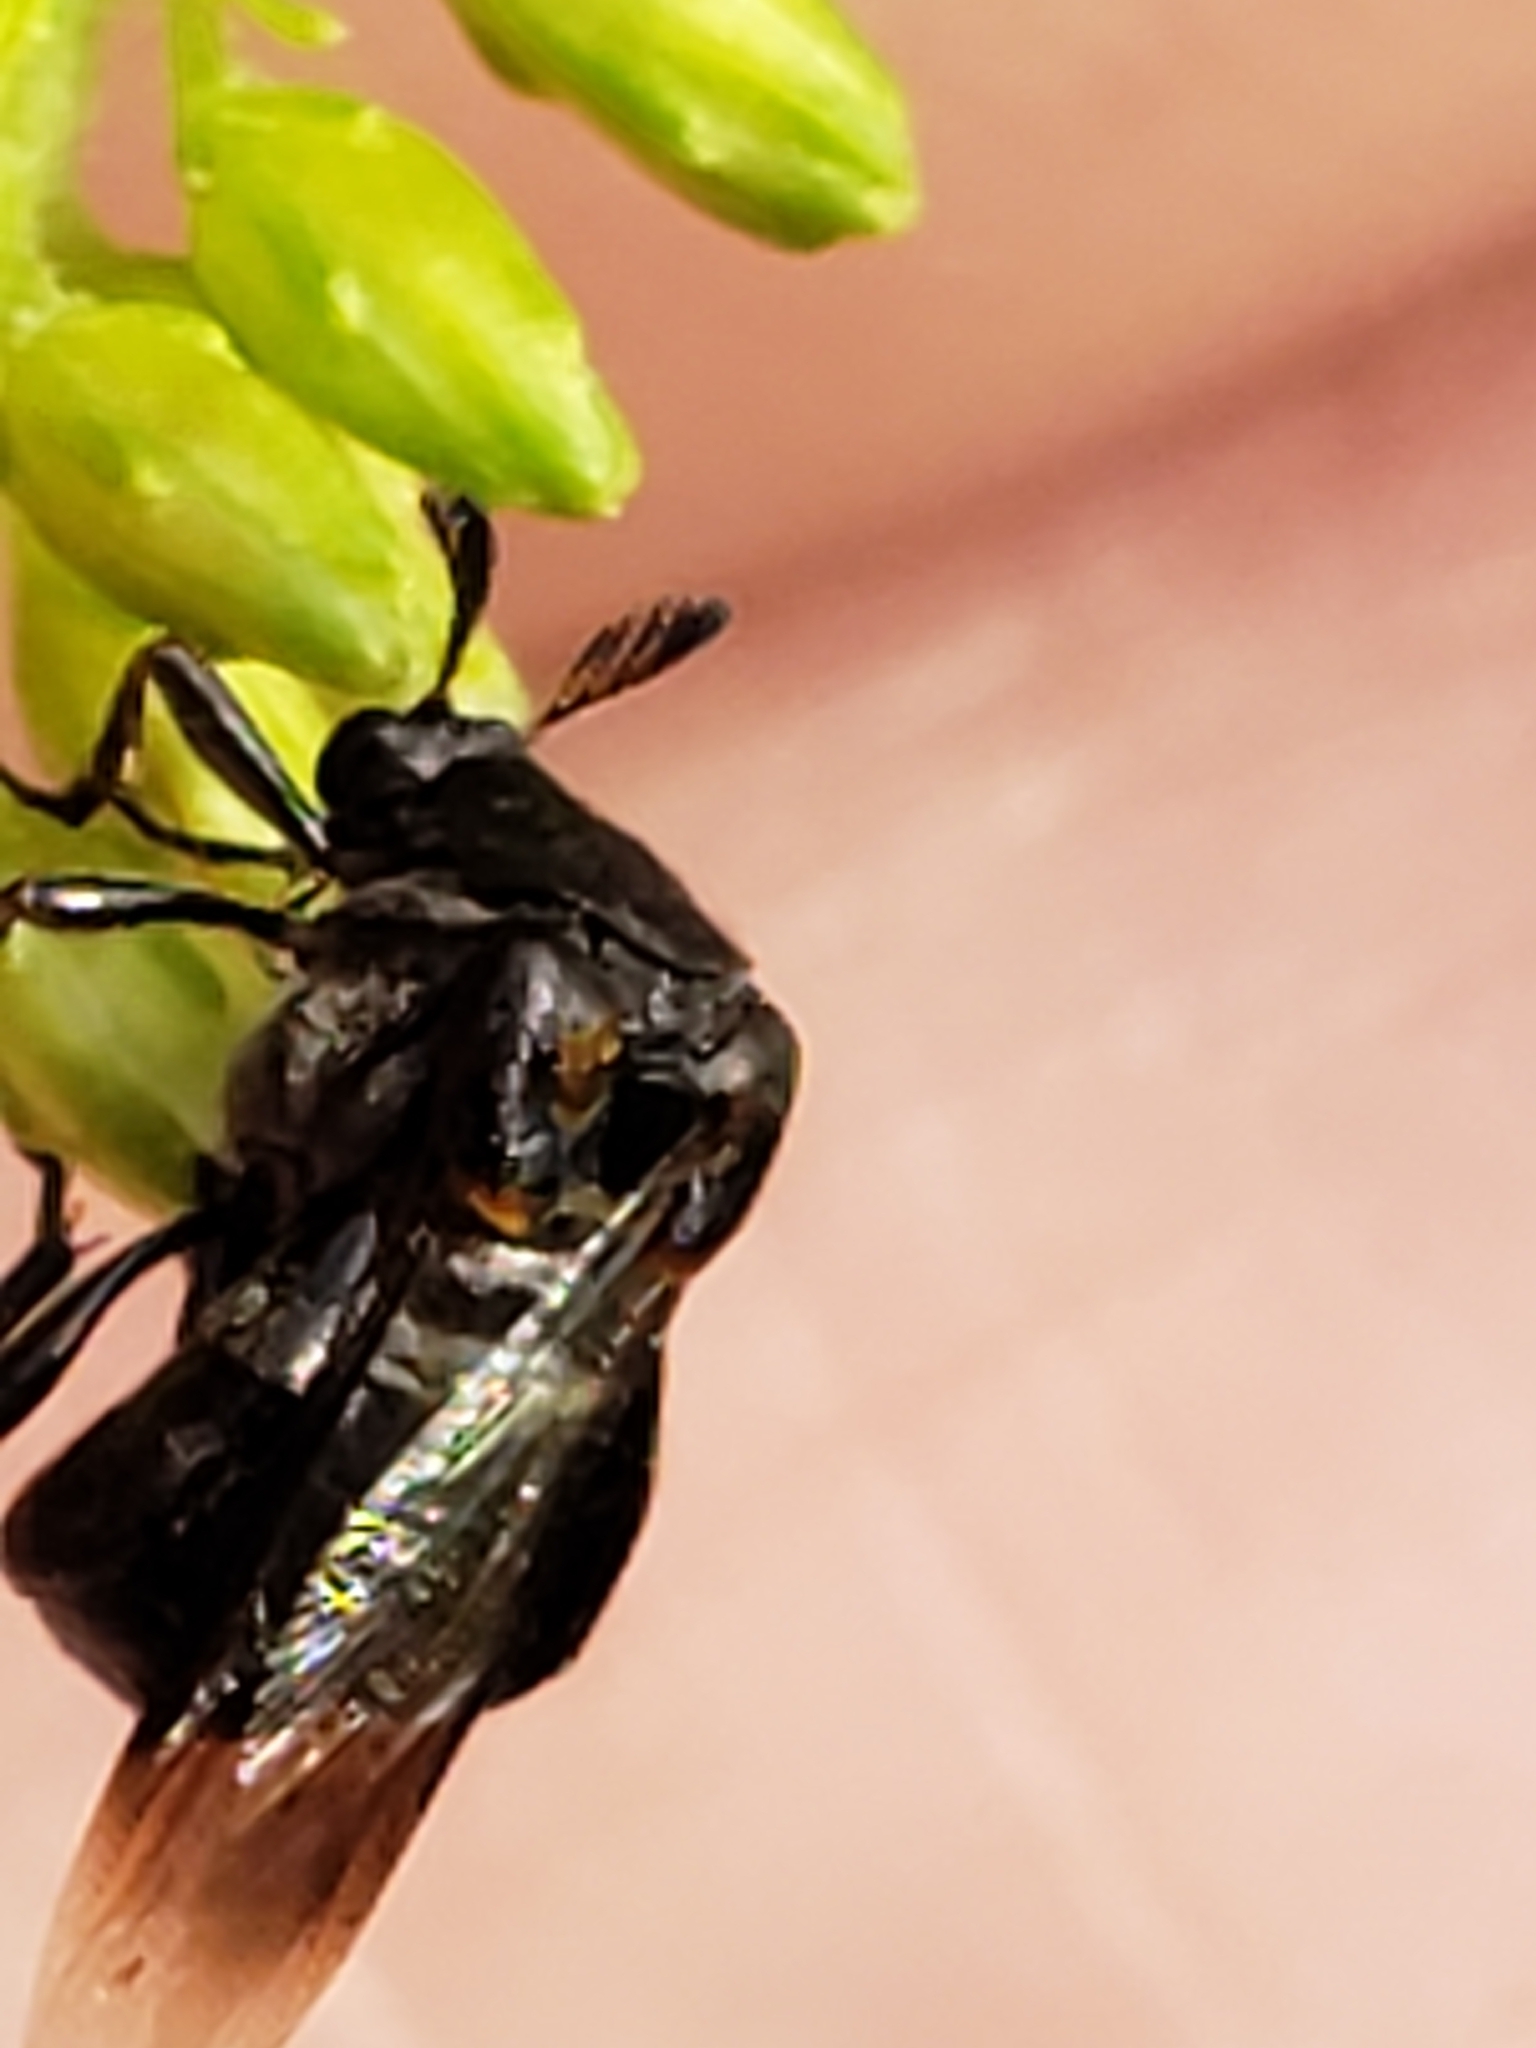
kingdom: Animalia
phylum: Arthropoda
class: Insecta
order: Coleoptera
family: Ripiphoridae
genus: Ripiphorus
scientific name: Ripiphorus fasciatus
